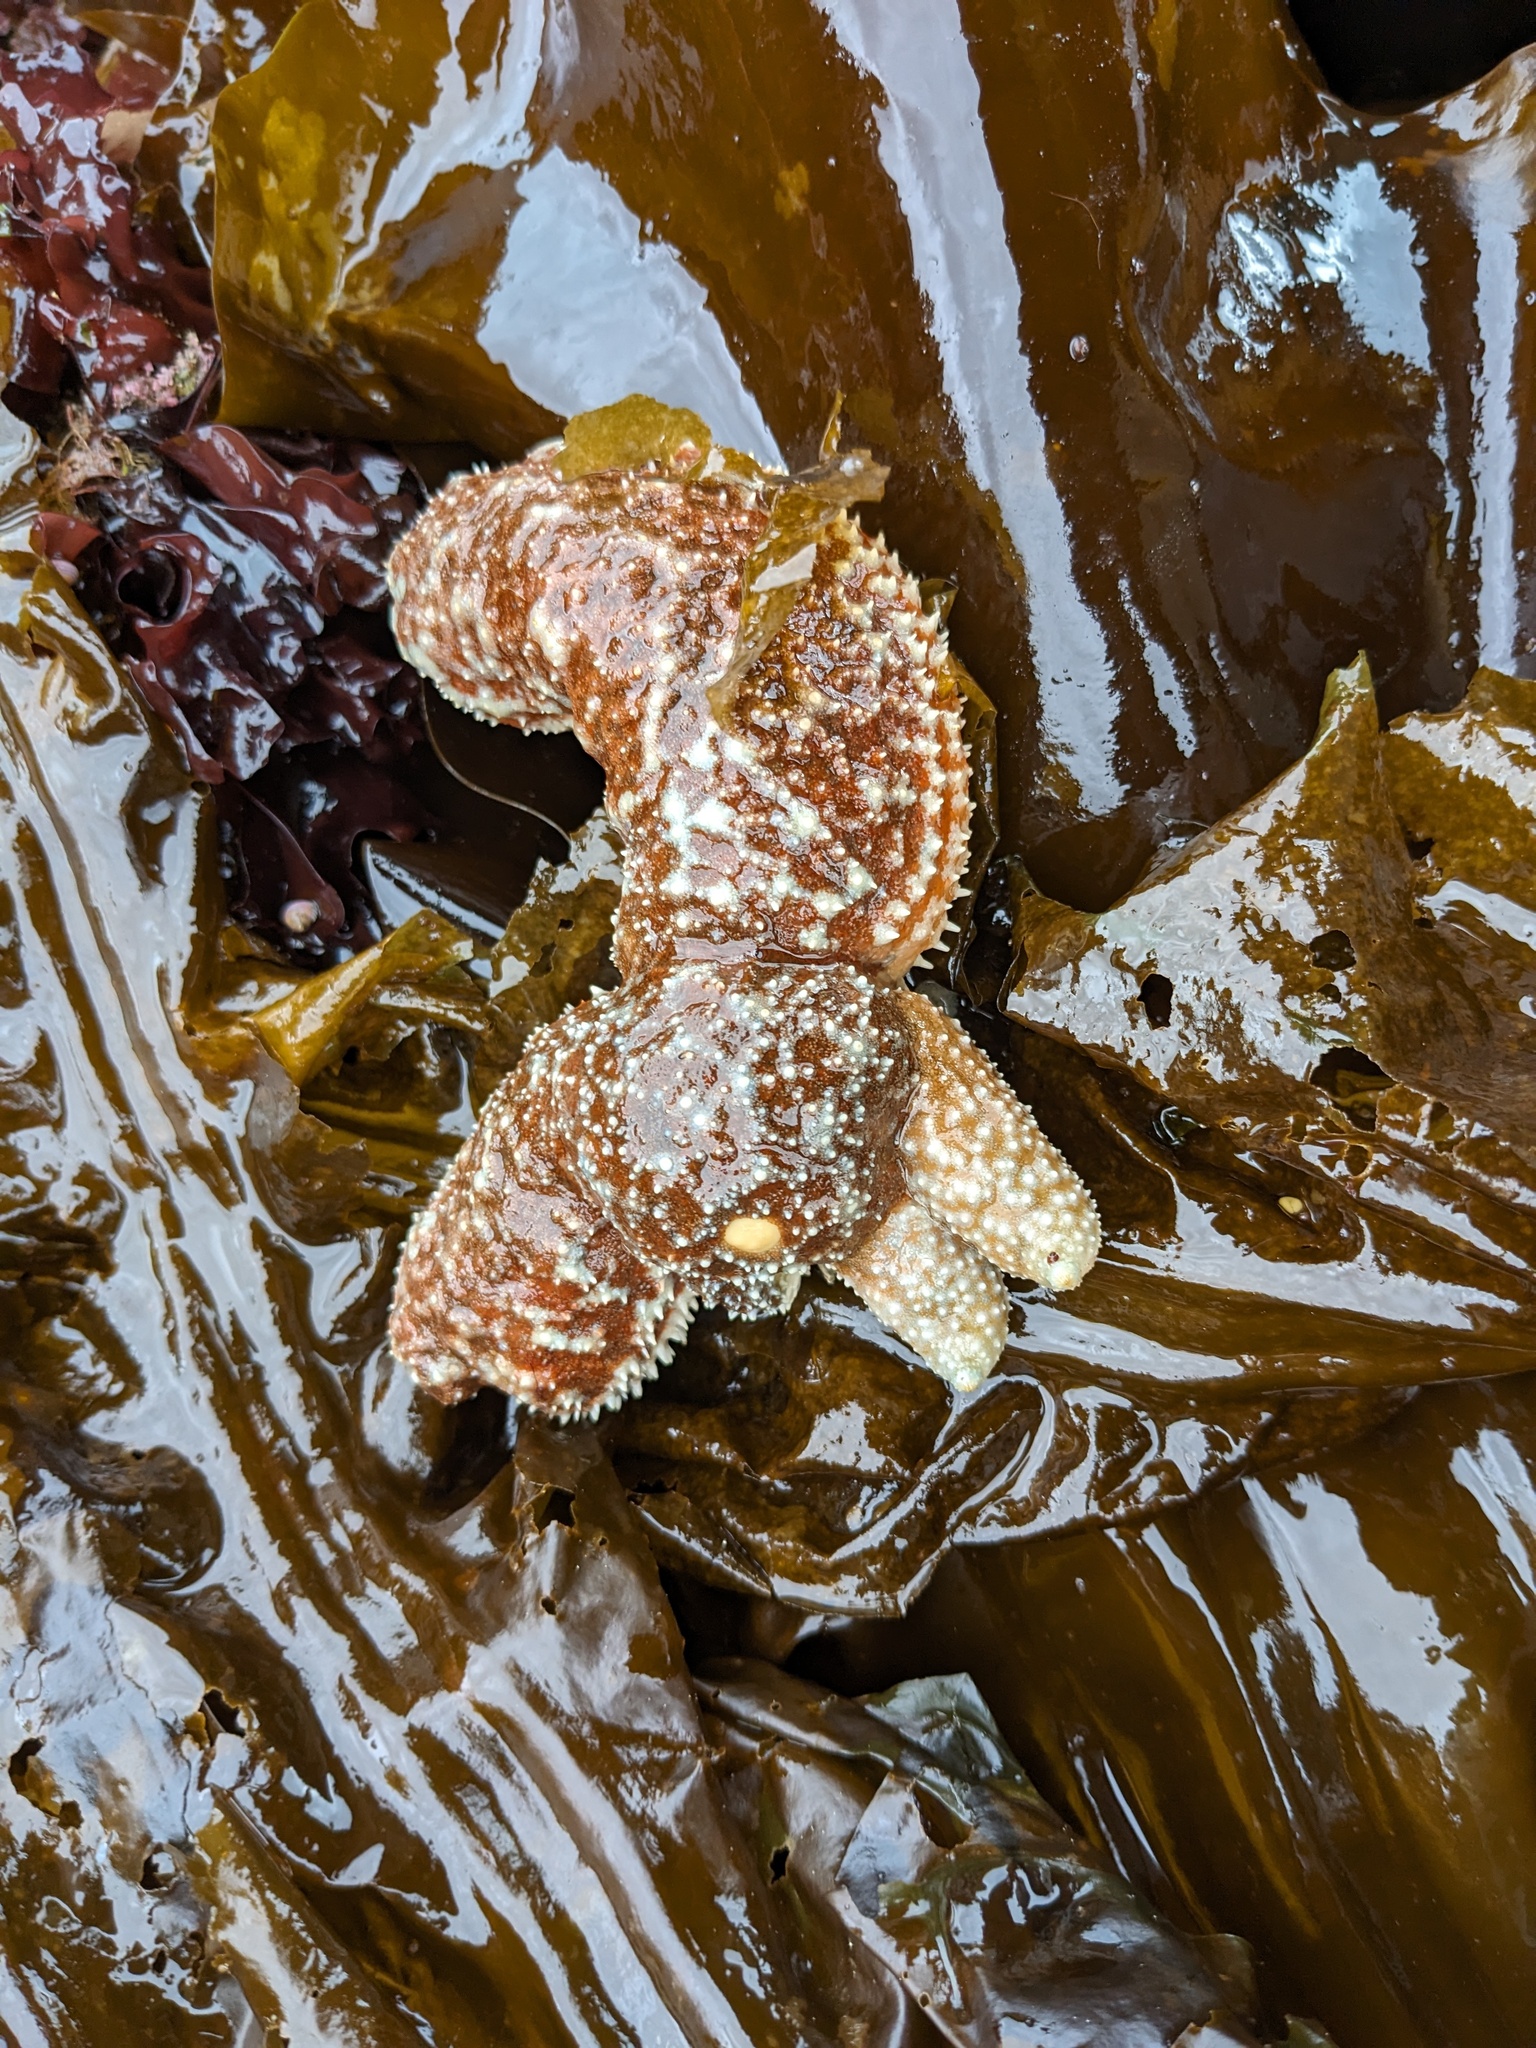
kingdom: Animalia
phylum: Echinodermata
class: Asteroidea
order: Forcipulatida
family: Asteriidae
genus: Evasterias
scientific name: Evasterias troschelii
